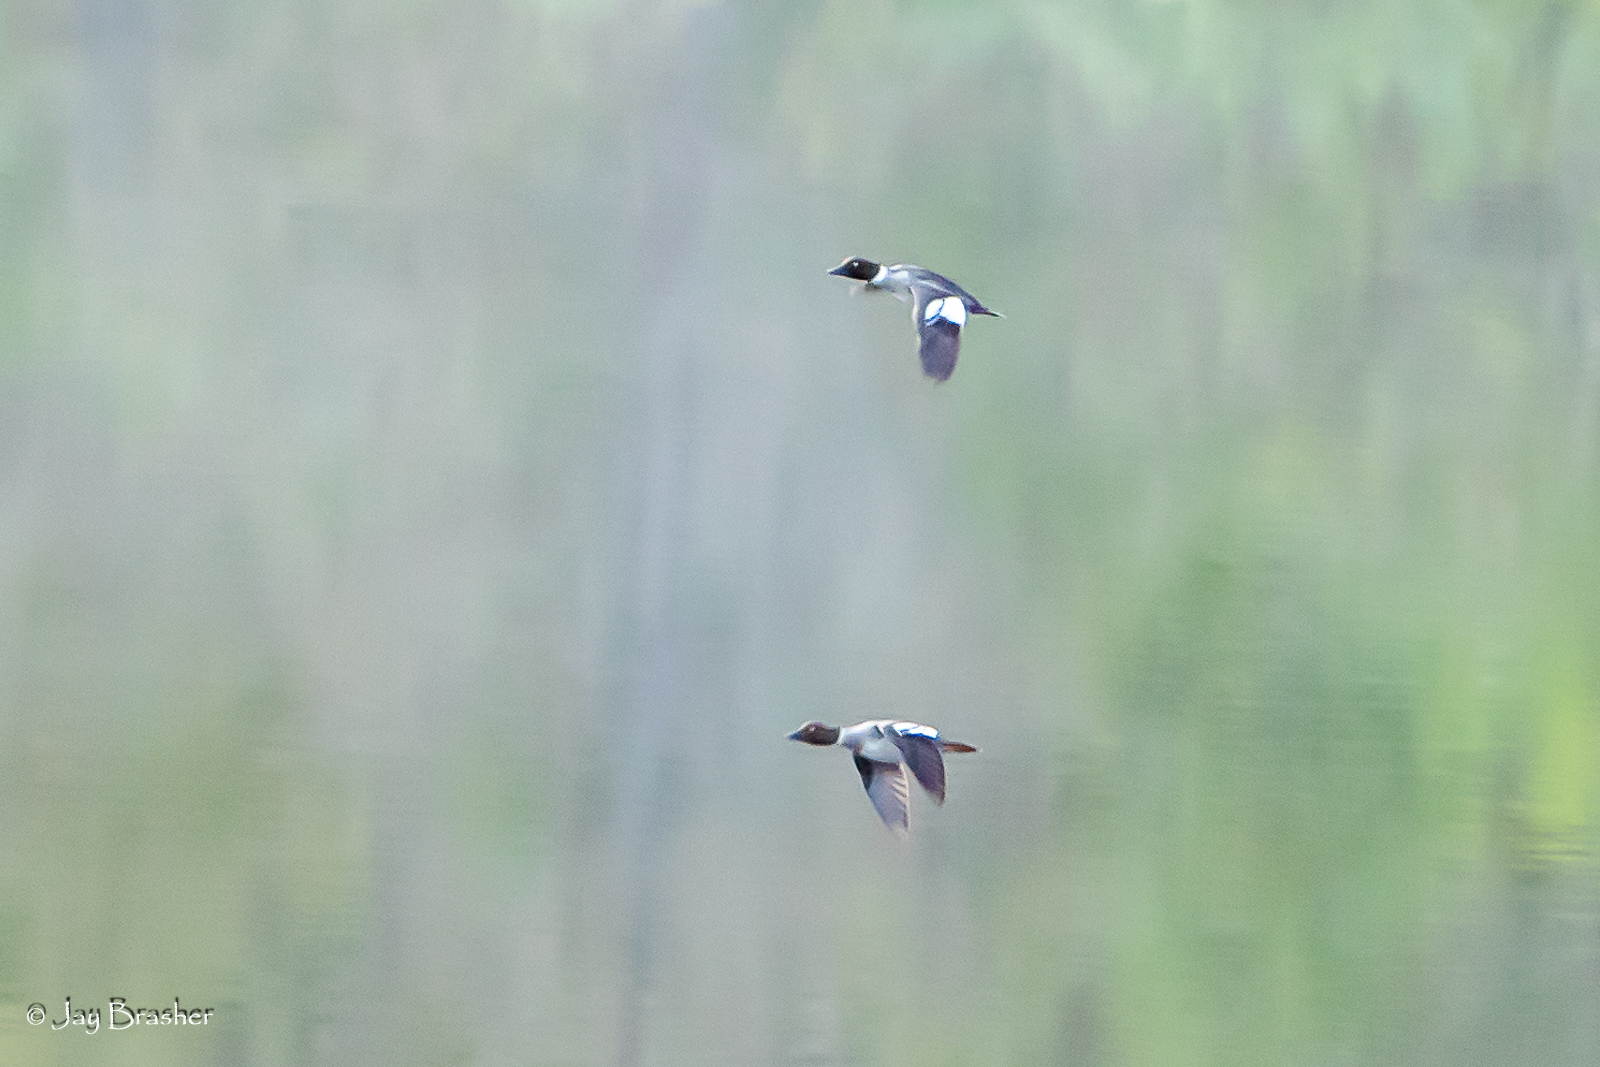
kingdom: Animalia
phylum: Chordata
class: Aves
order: Anseriformes
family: Anatidae
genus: Bucephala
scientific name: Bucephala clangula
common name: Common goldeneye
